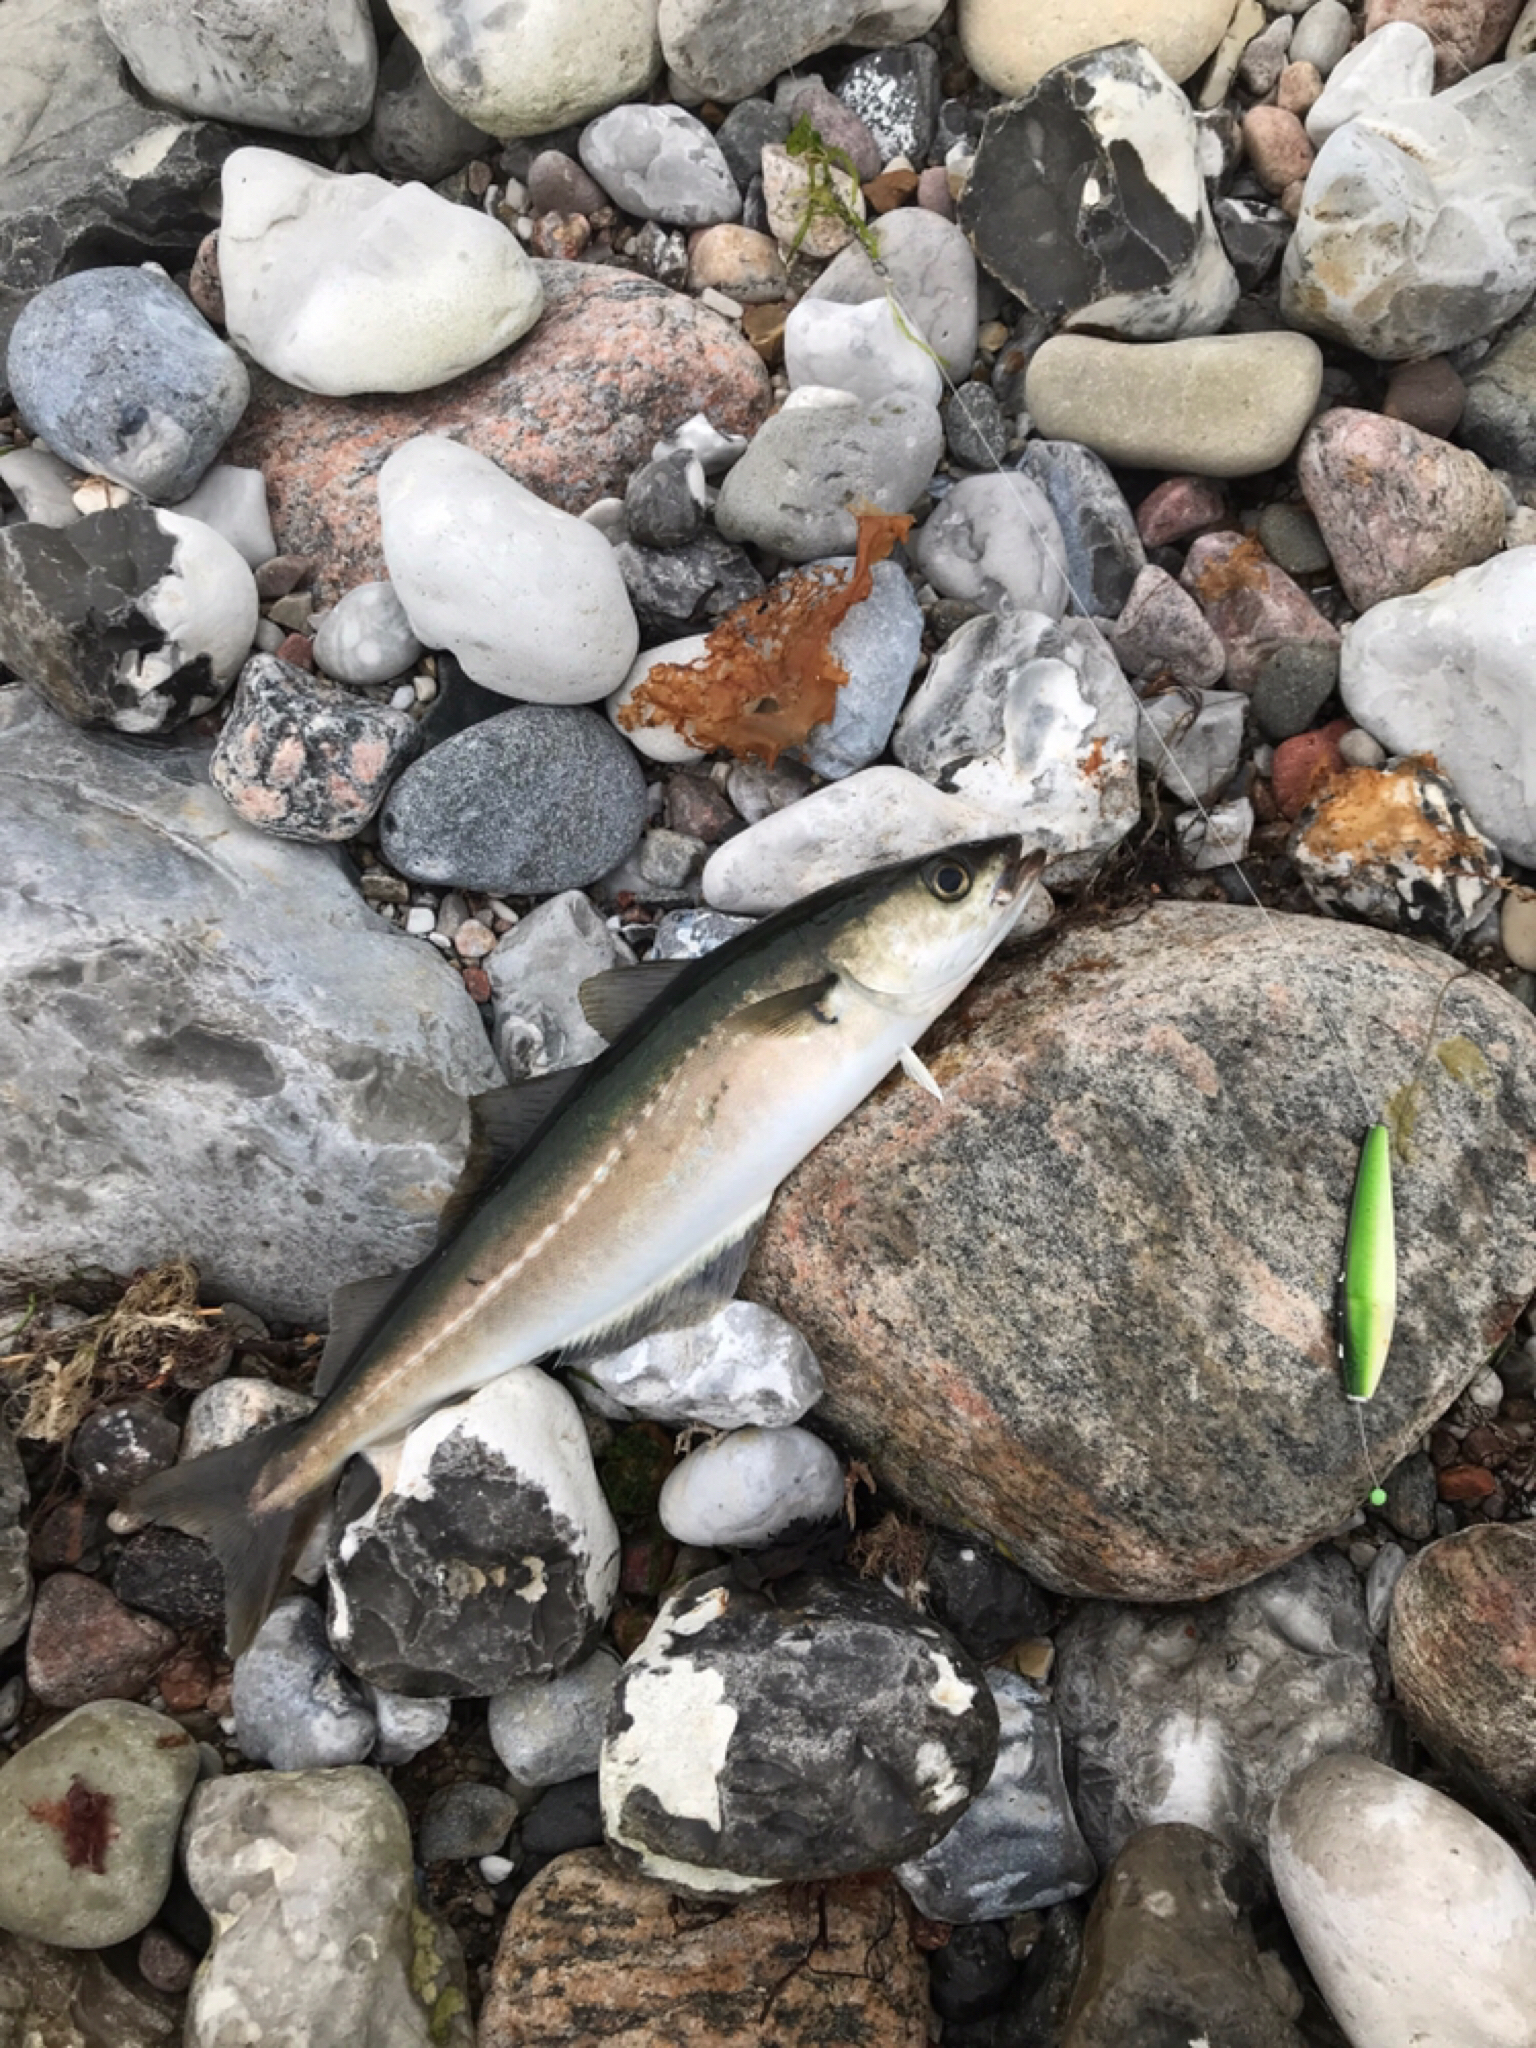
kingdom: Animalia
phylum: Chordata
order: Gadiformes
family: Gadidae
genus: Pollachius
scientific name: Pollachius virens
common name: Saithe
